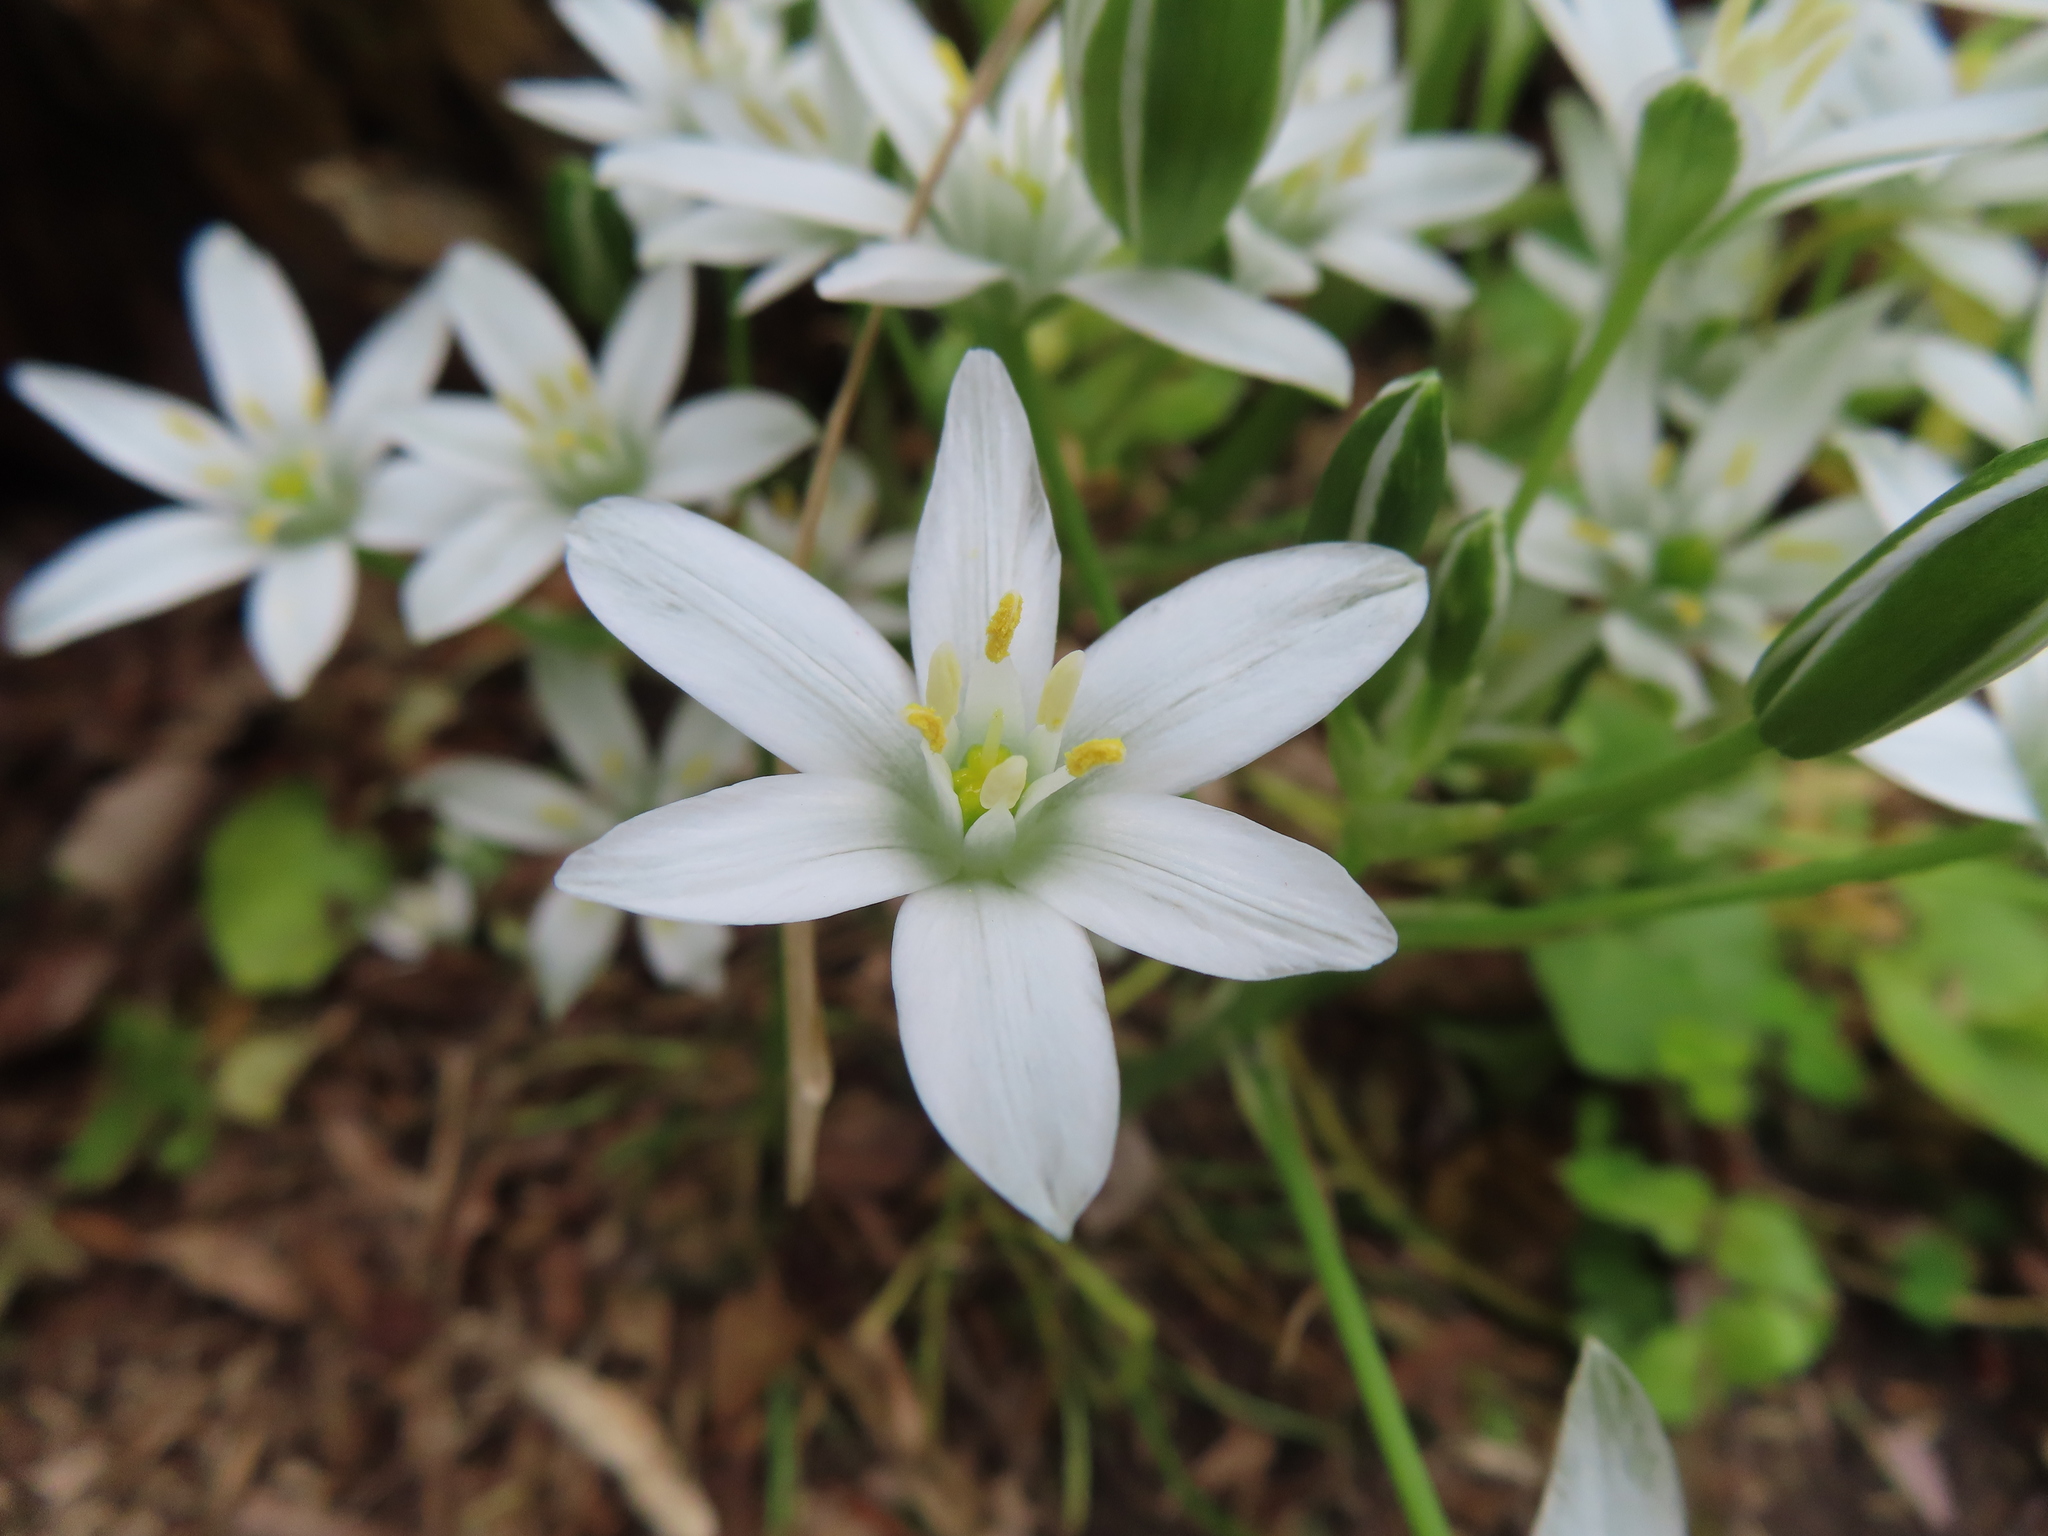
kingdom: Plantae
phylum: Tracheophyta
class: Liliopsida
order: Asparagales
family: Asparagaceae
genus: Ornithogalum
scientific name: Ornithogalum umbellatum
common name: Garden star-of-bethlehem
